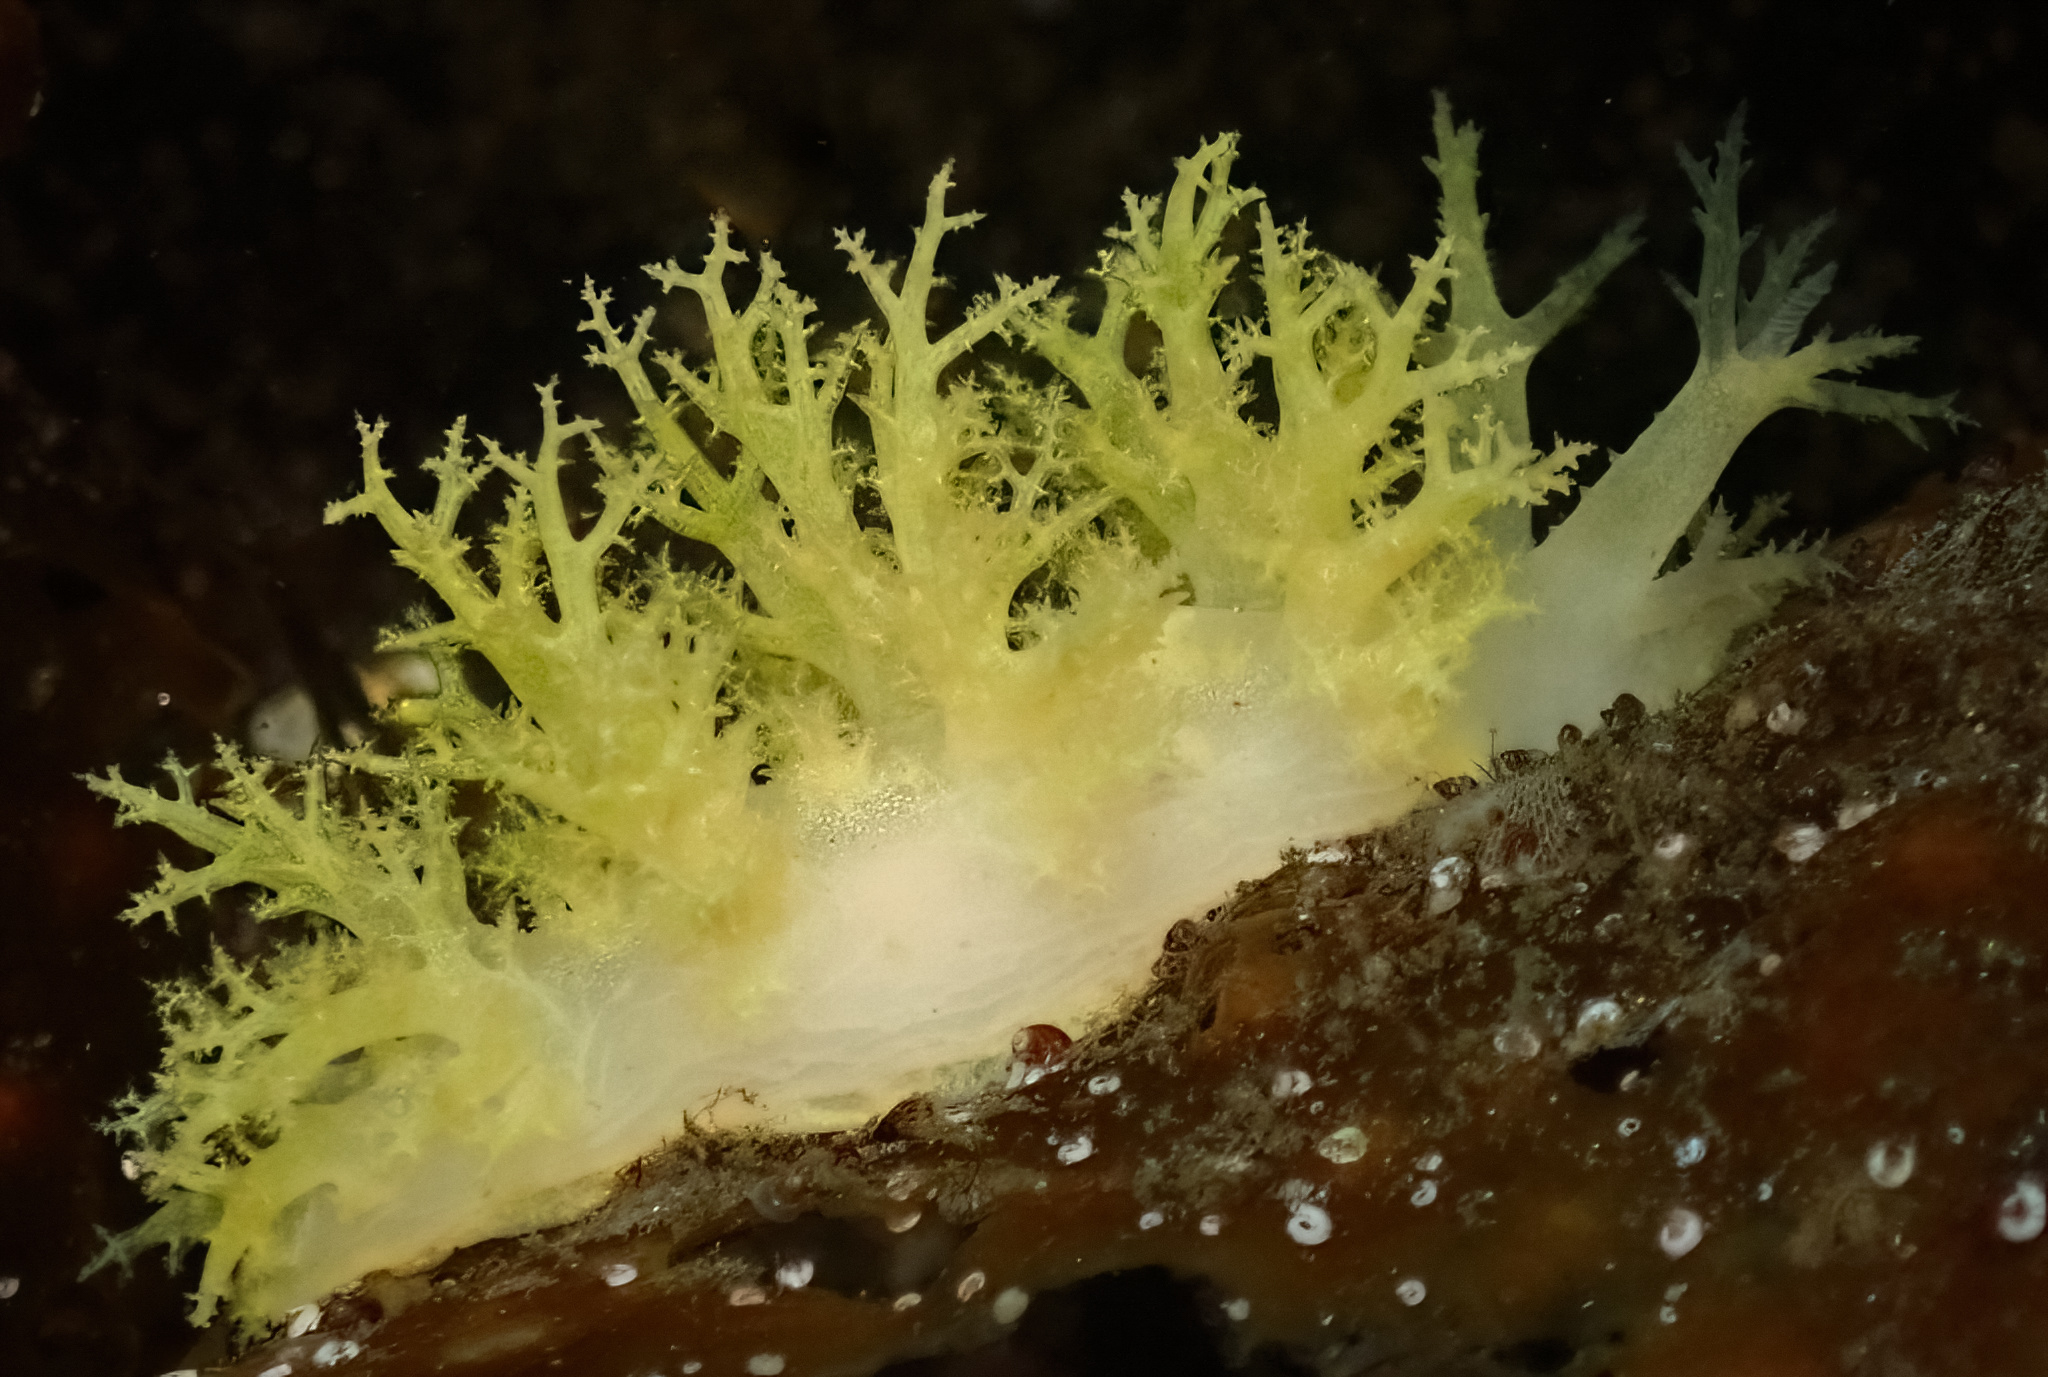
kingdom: Animalia
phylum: Mollusca
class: Gastropoda
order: Nudibranchia
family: Dendronotidae
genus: Dendronotus
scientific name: Dendronotus lacteus
